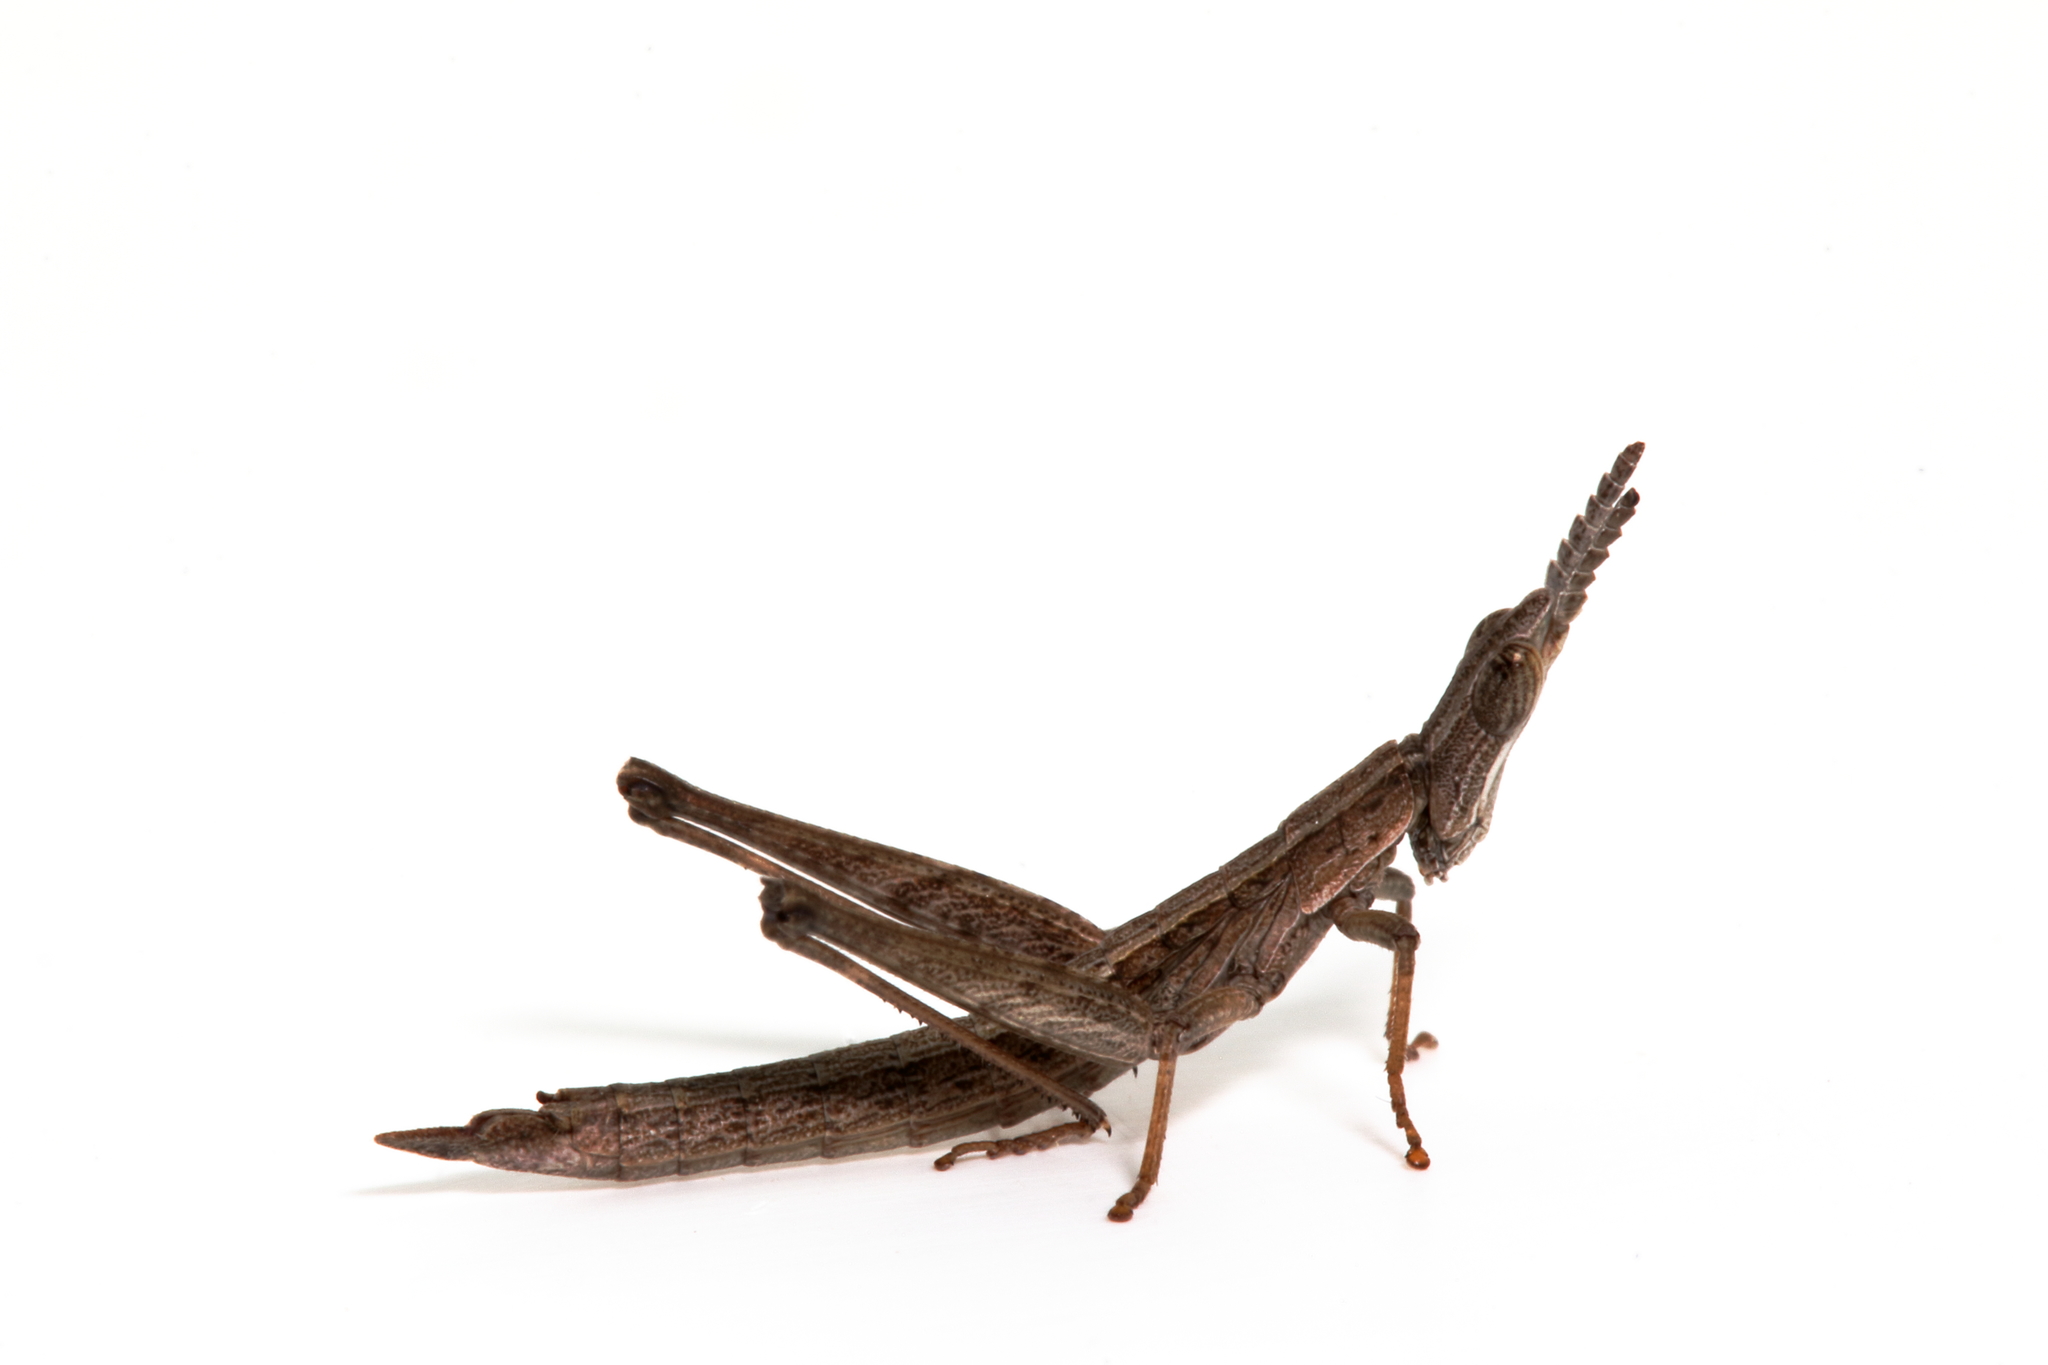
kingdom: Animalia
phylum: Arthropoda
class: Insecta
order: Orthoptera
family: Morabidae
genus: Keyacris
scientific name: Keyacris scurra
